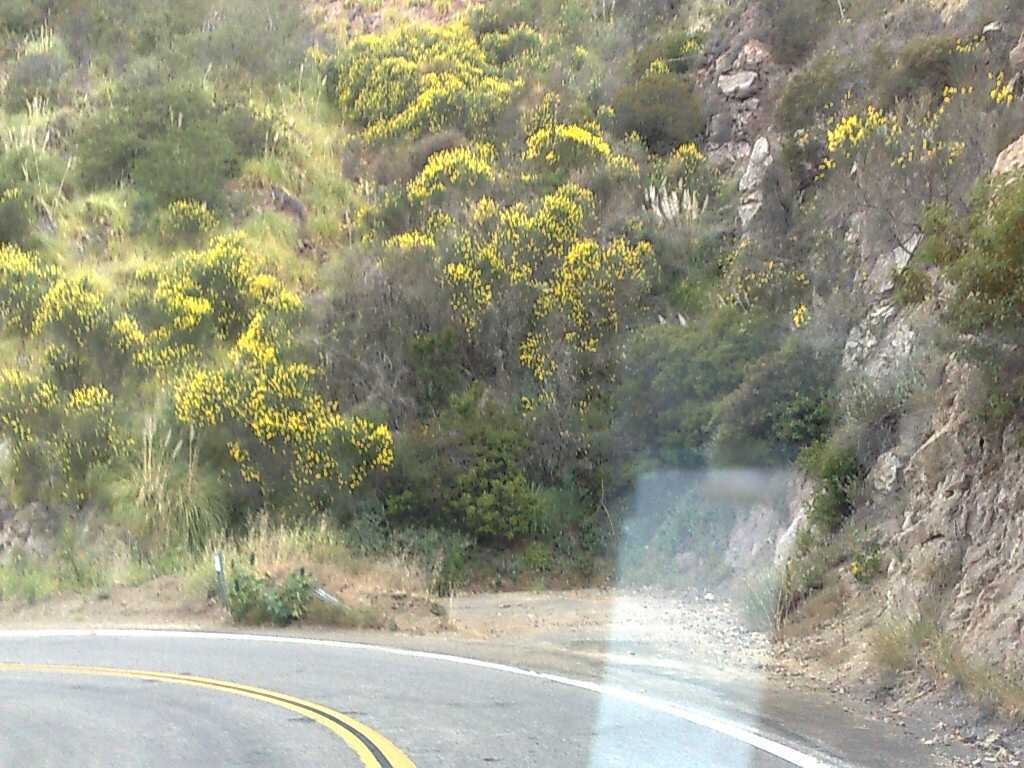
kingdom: Plantae
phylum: Tracheophyta
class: Magnoliopsida
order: Fabales
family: Fabaceae
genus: Spartium
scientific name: Spartium junceum
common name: Spanish broom
